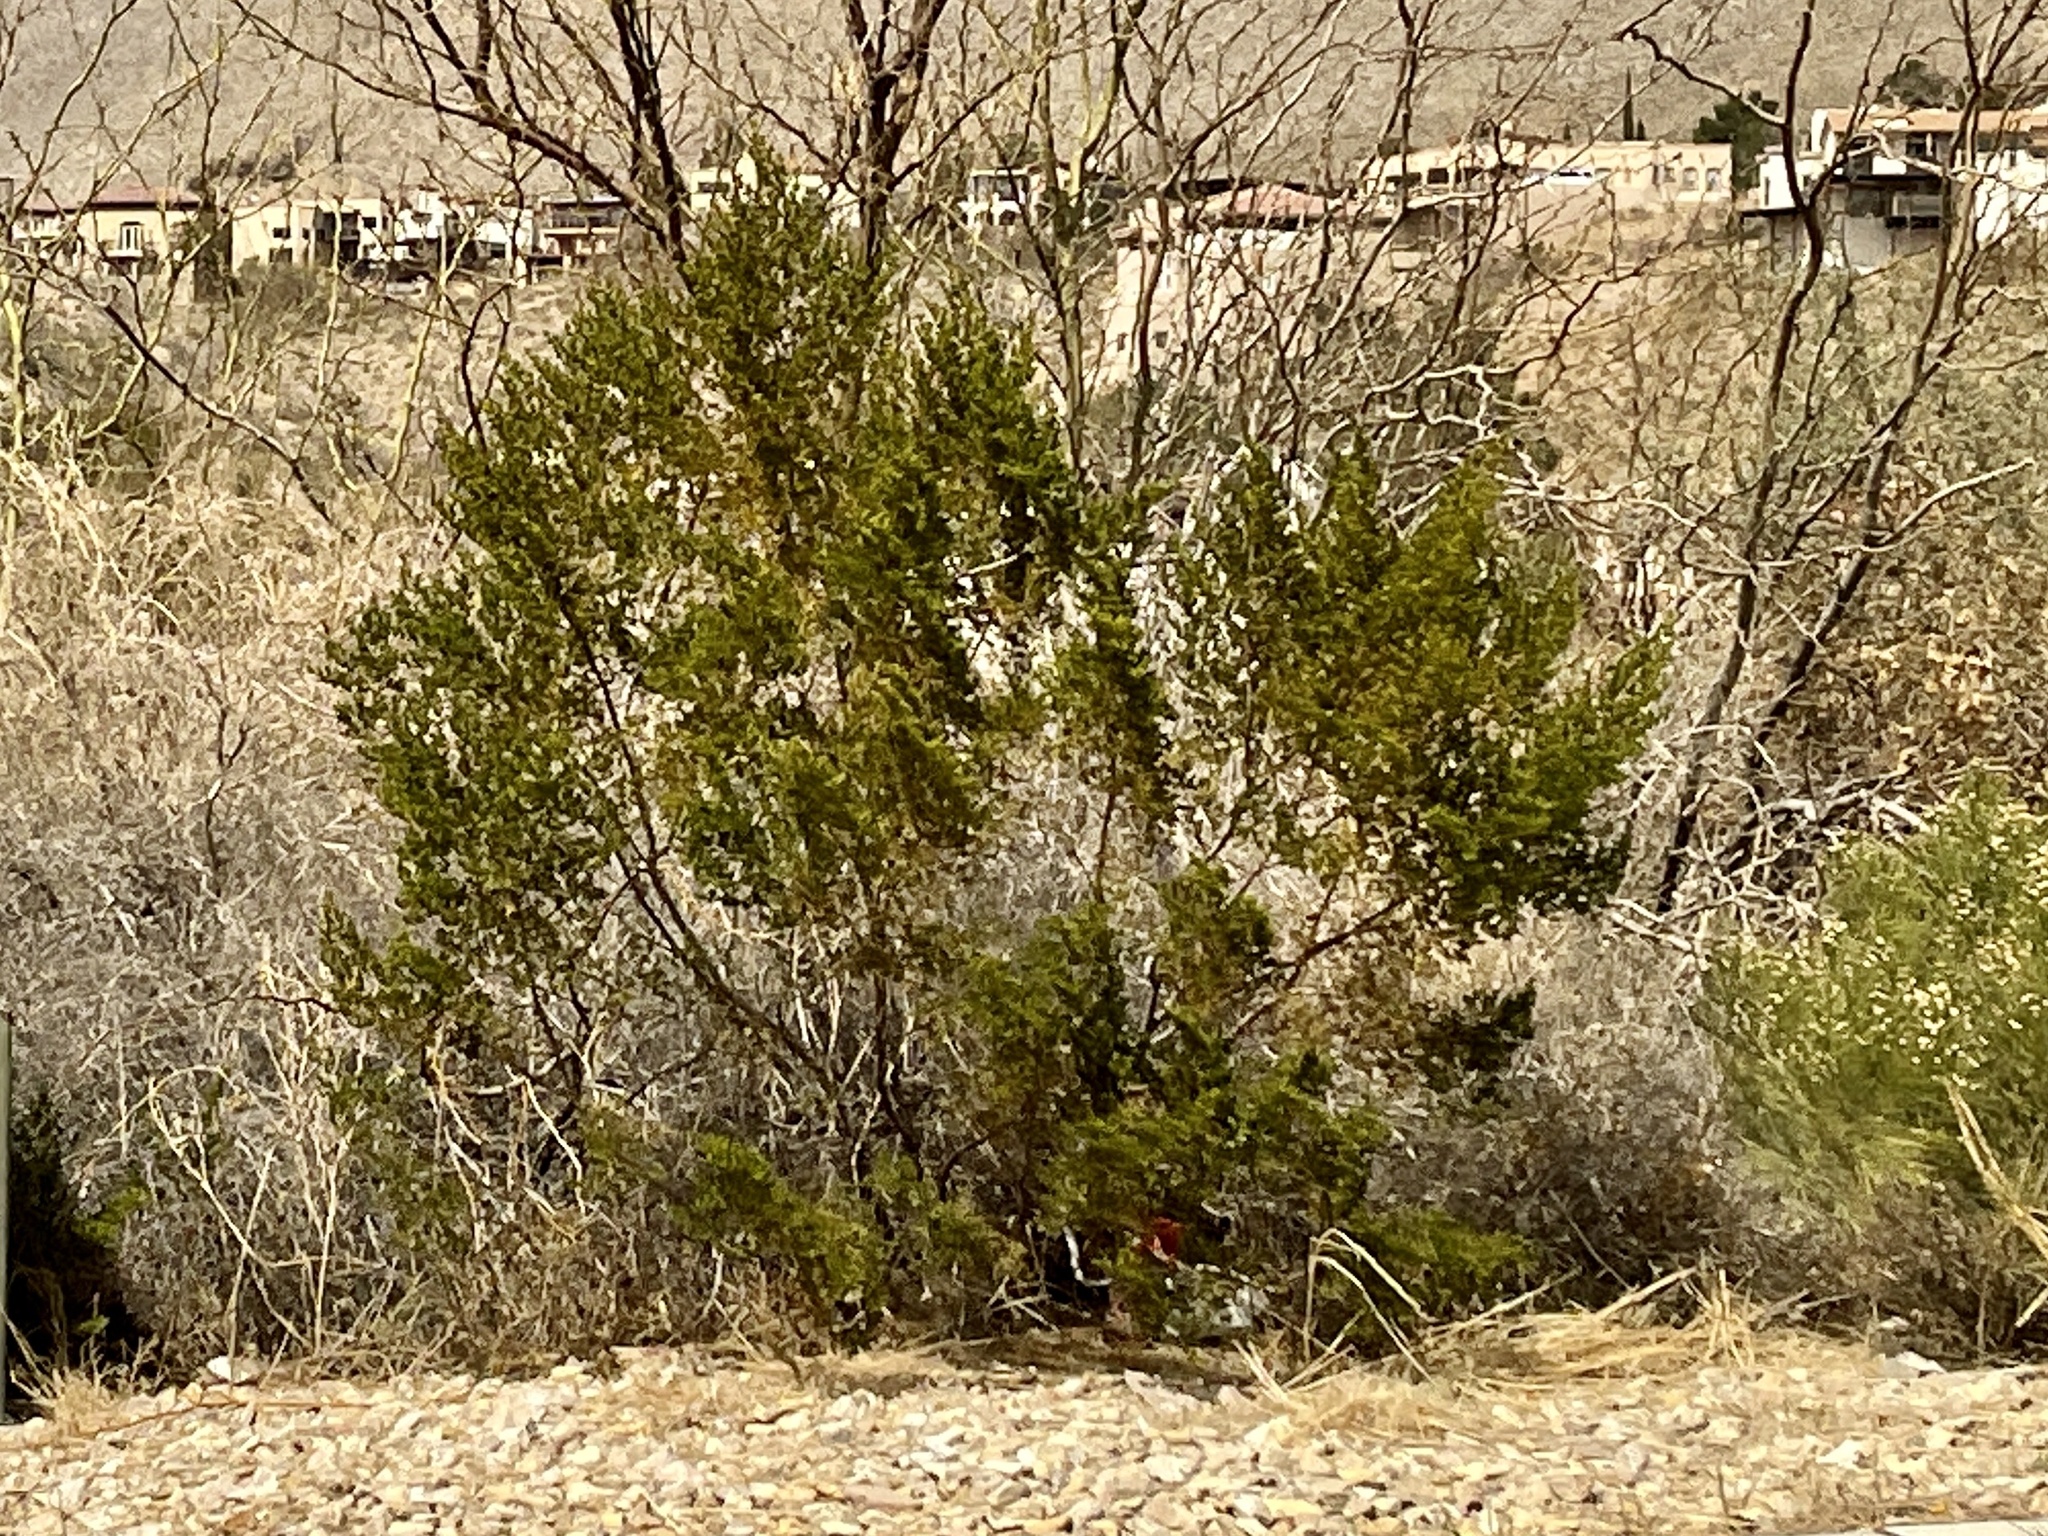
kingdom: Plantae
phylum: Tracheophyta
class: Magnoliopsida
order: Zygophyllales
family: Zygophyllaceae
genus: Larrea
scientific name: Larrea tridentata
